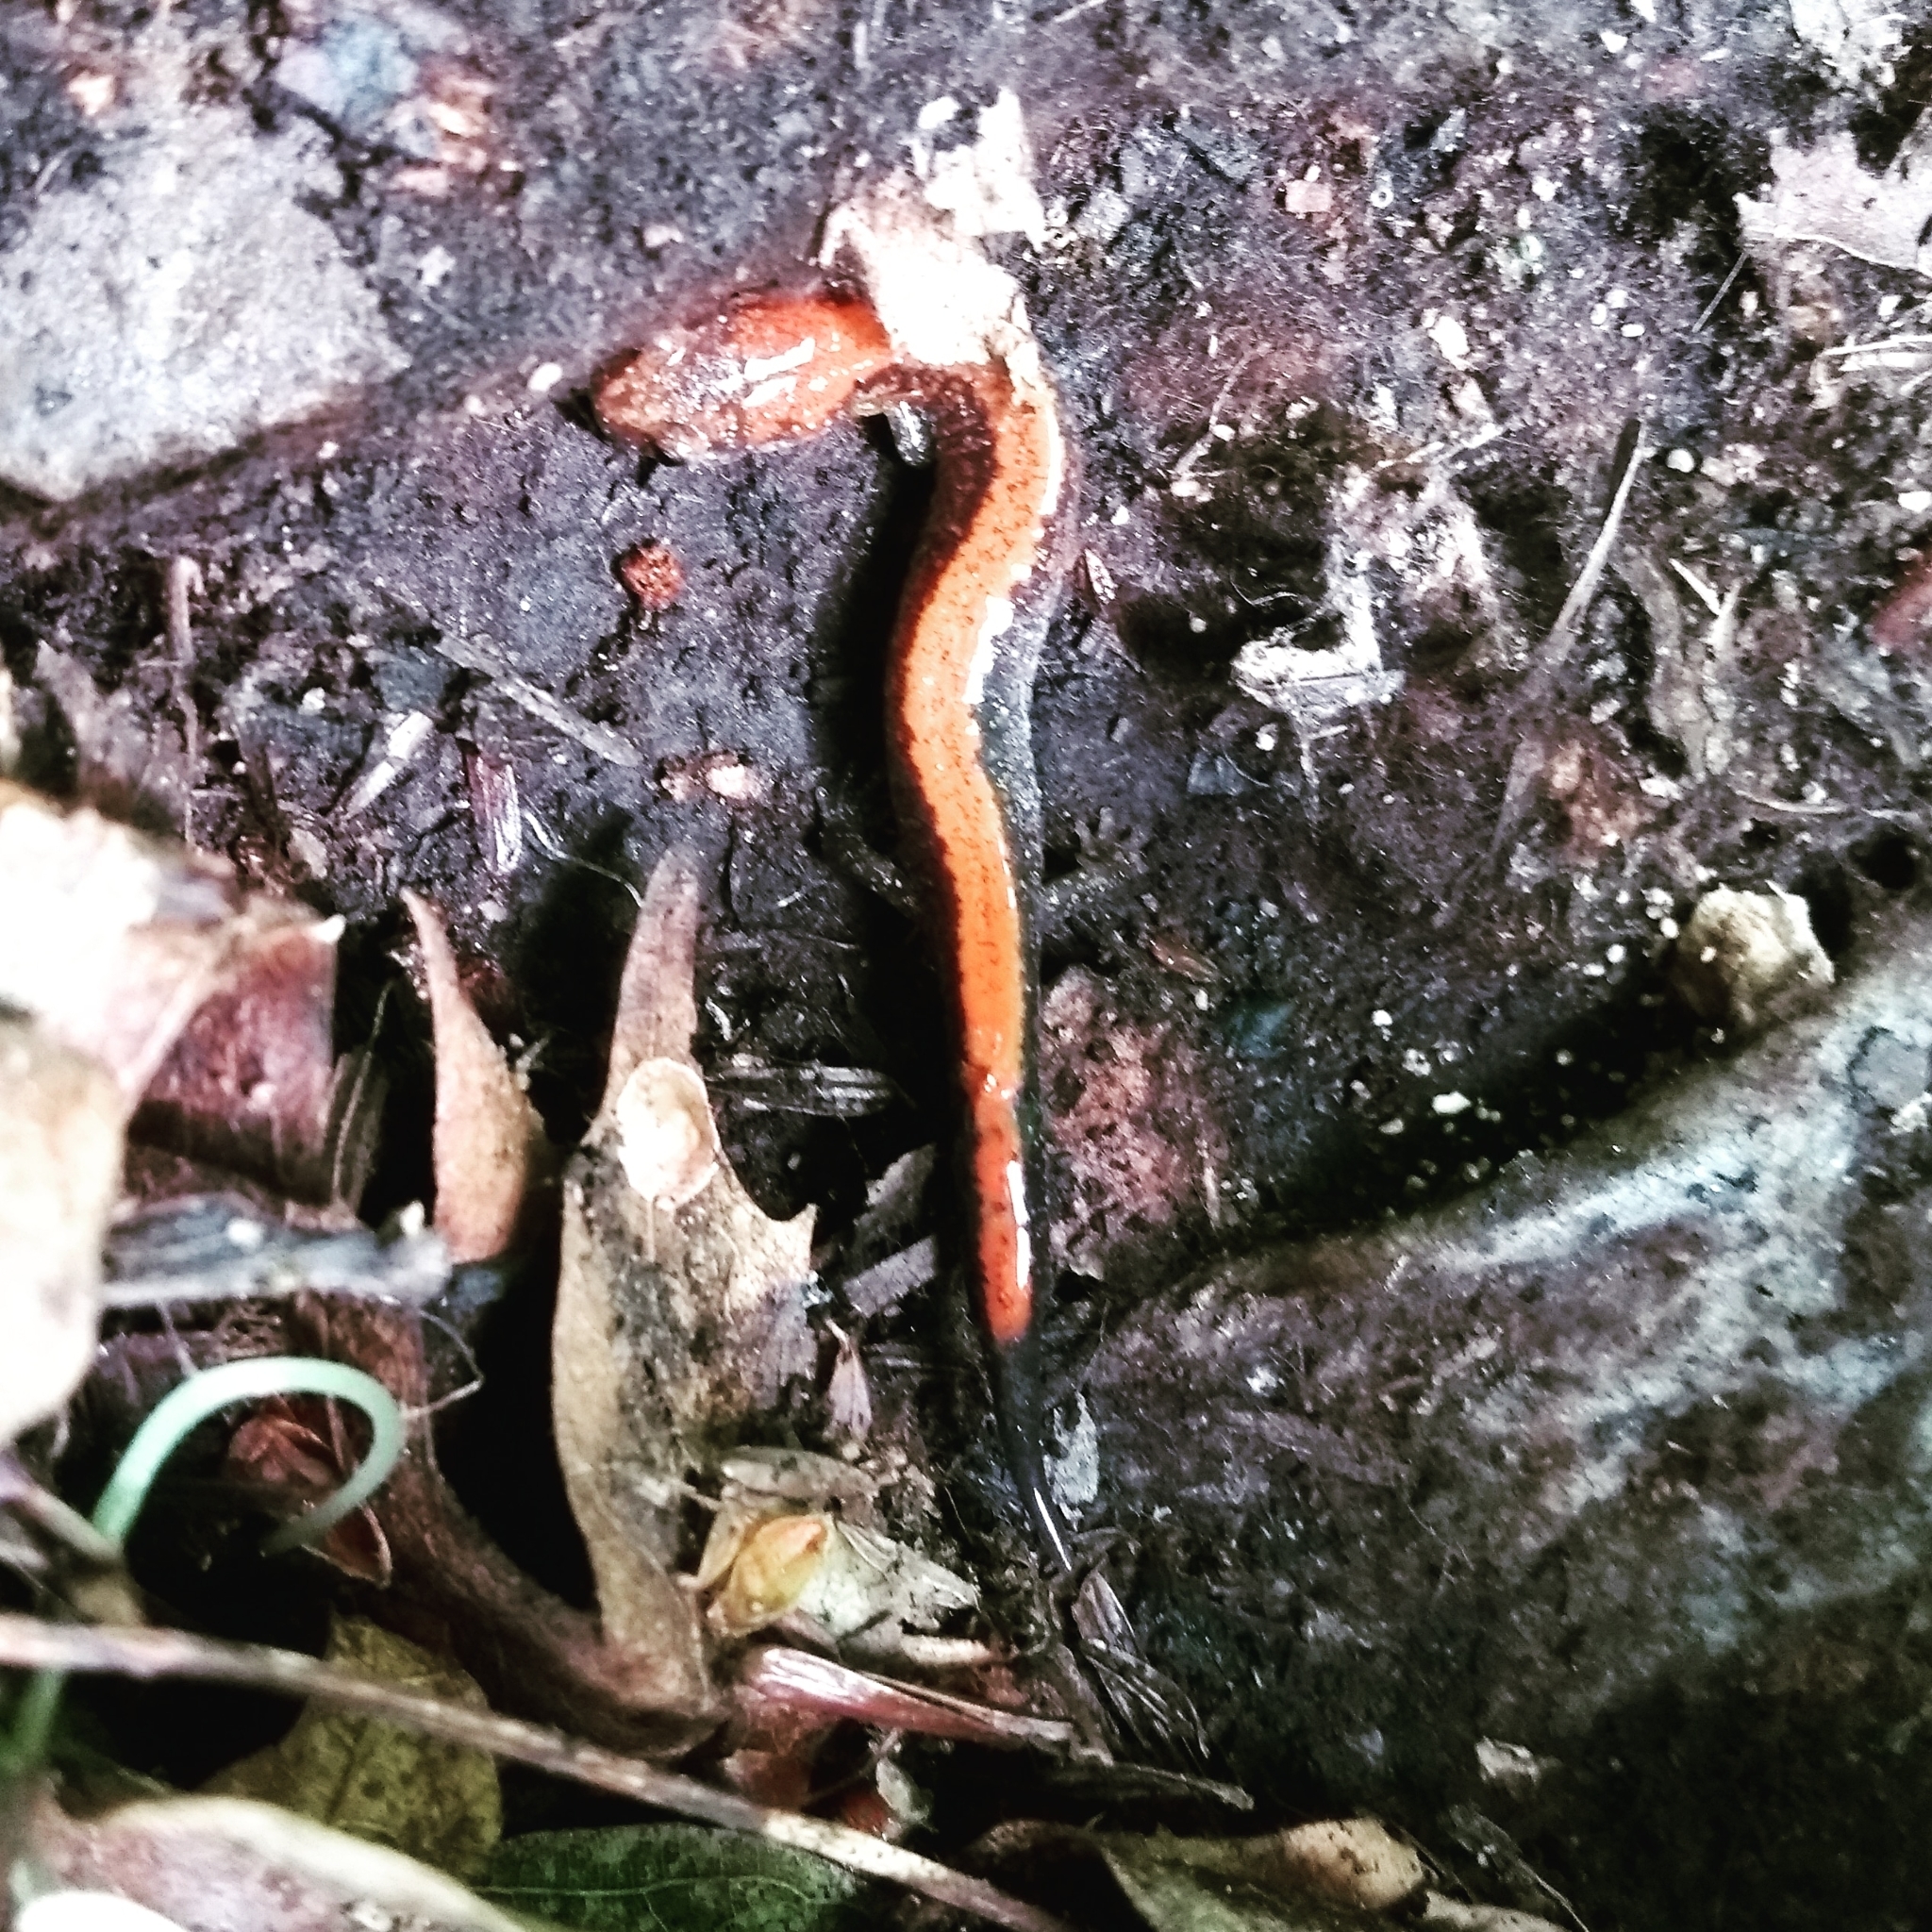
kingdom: Animalia
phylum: Chordata
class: Amphibia
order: Caudata
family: Plethodontidae
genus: Plethodon
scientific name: Plethodon cinereus
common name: Redback salamander
